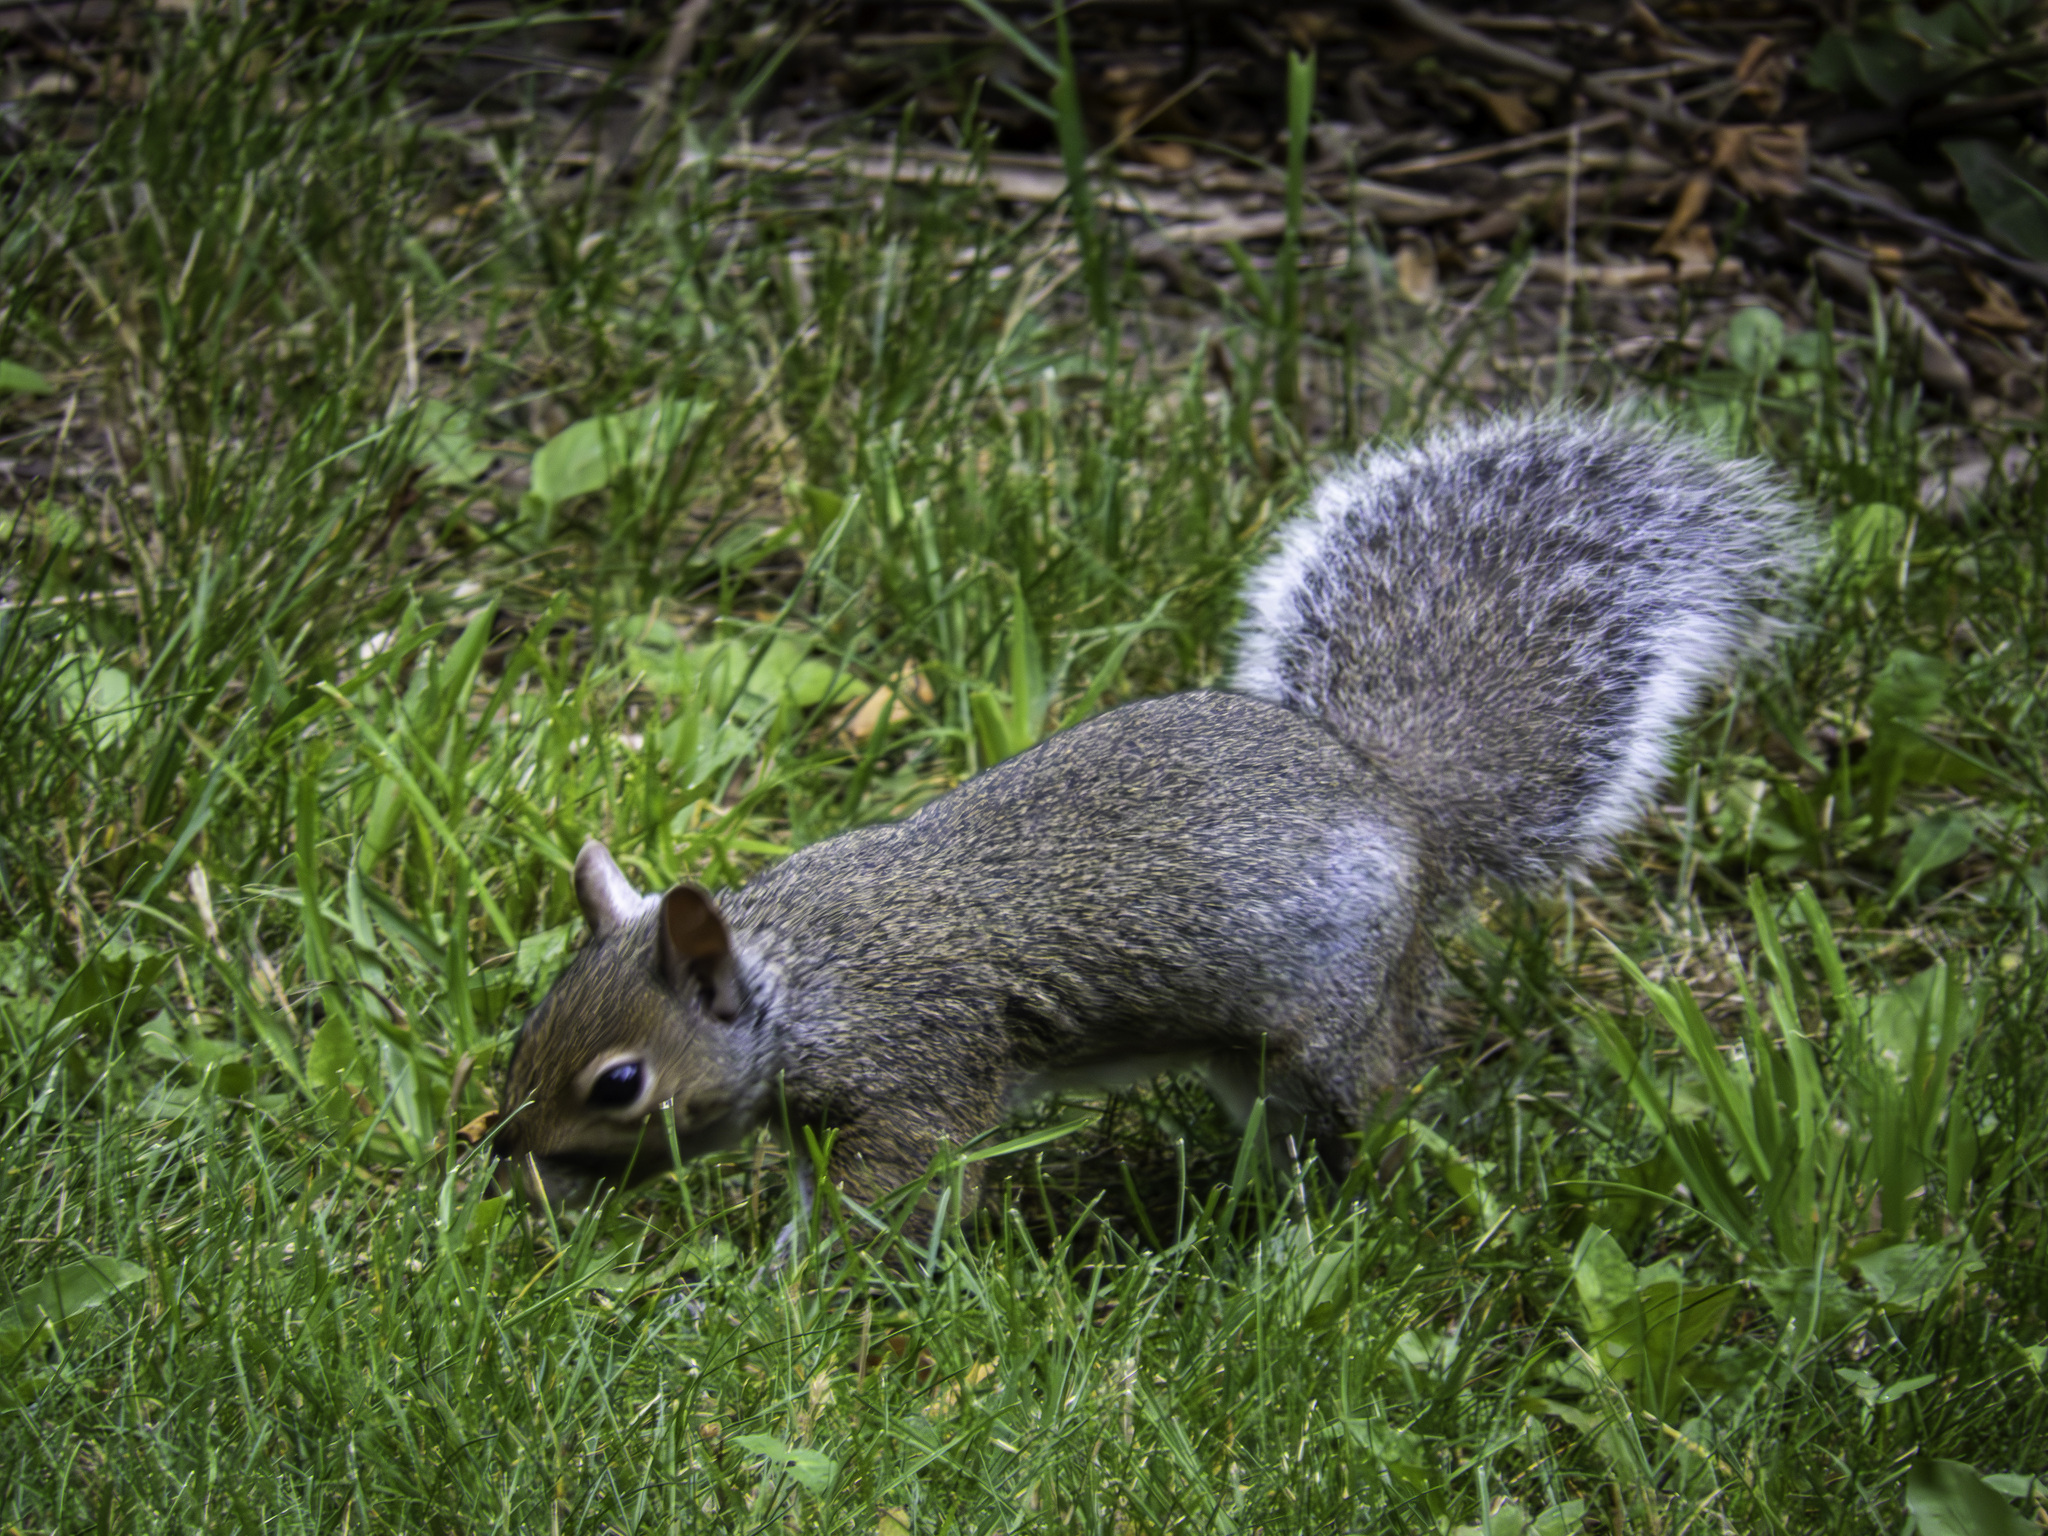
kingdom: Animalia
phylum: Chordata
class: Mammalia
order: Rodentia
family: Sciuridae
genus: Sciurus
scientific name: Sciurus carolinensis
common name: Eastern gray squirrel
